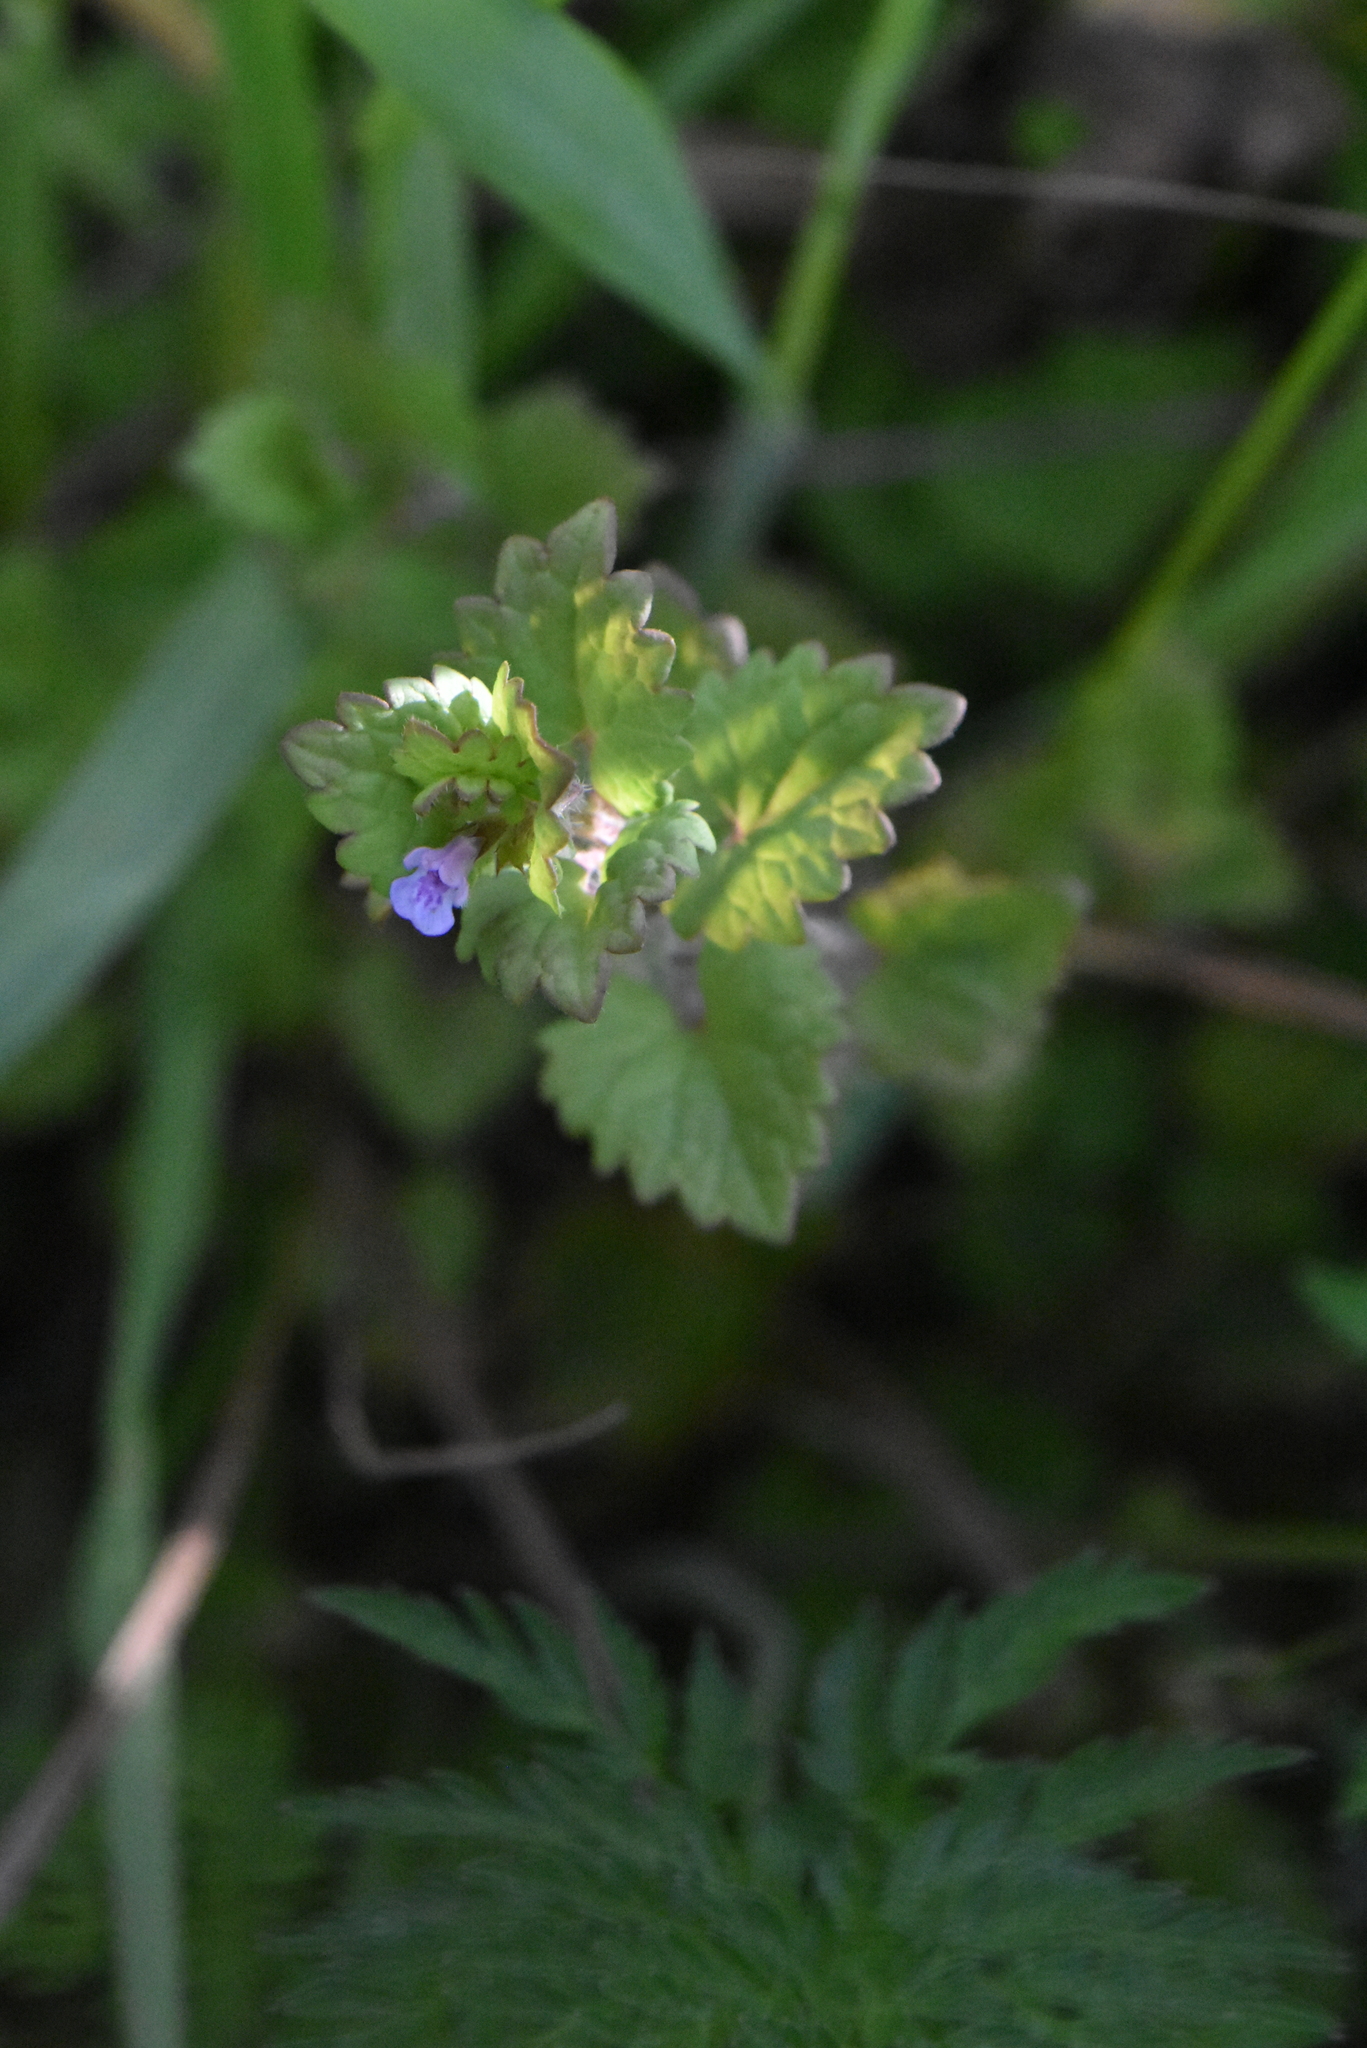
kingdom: Plantae
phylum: Tracheophyta
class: Magnoliopsida
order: Lamiales
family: Lamiaceae
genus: Glechoma
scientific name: Glechoma hederacea
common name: Ground ivy
